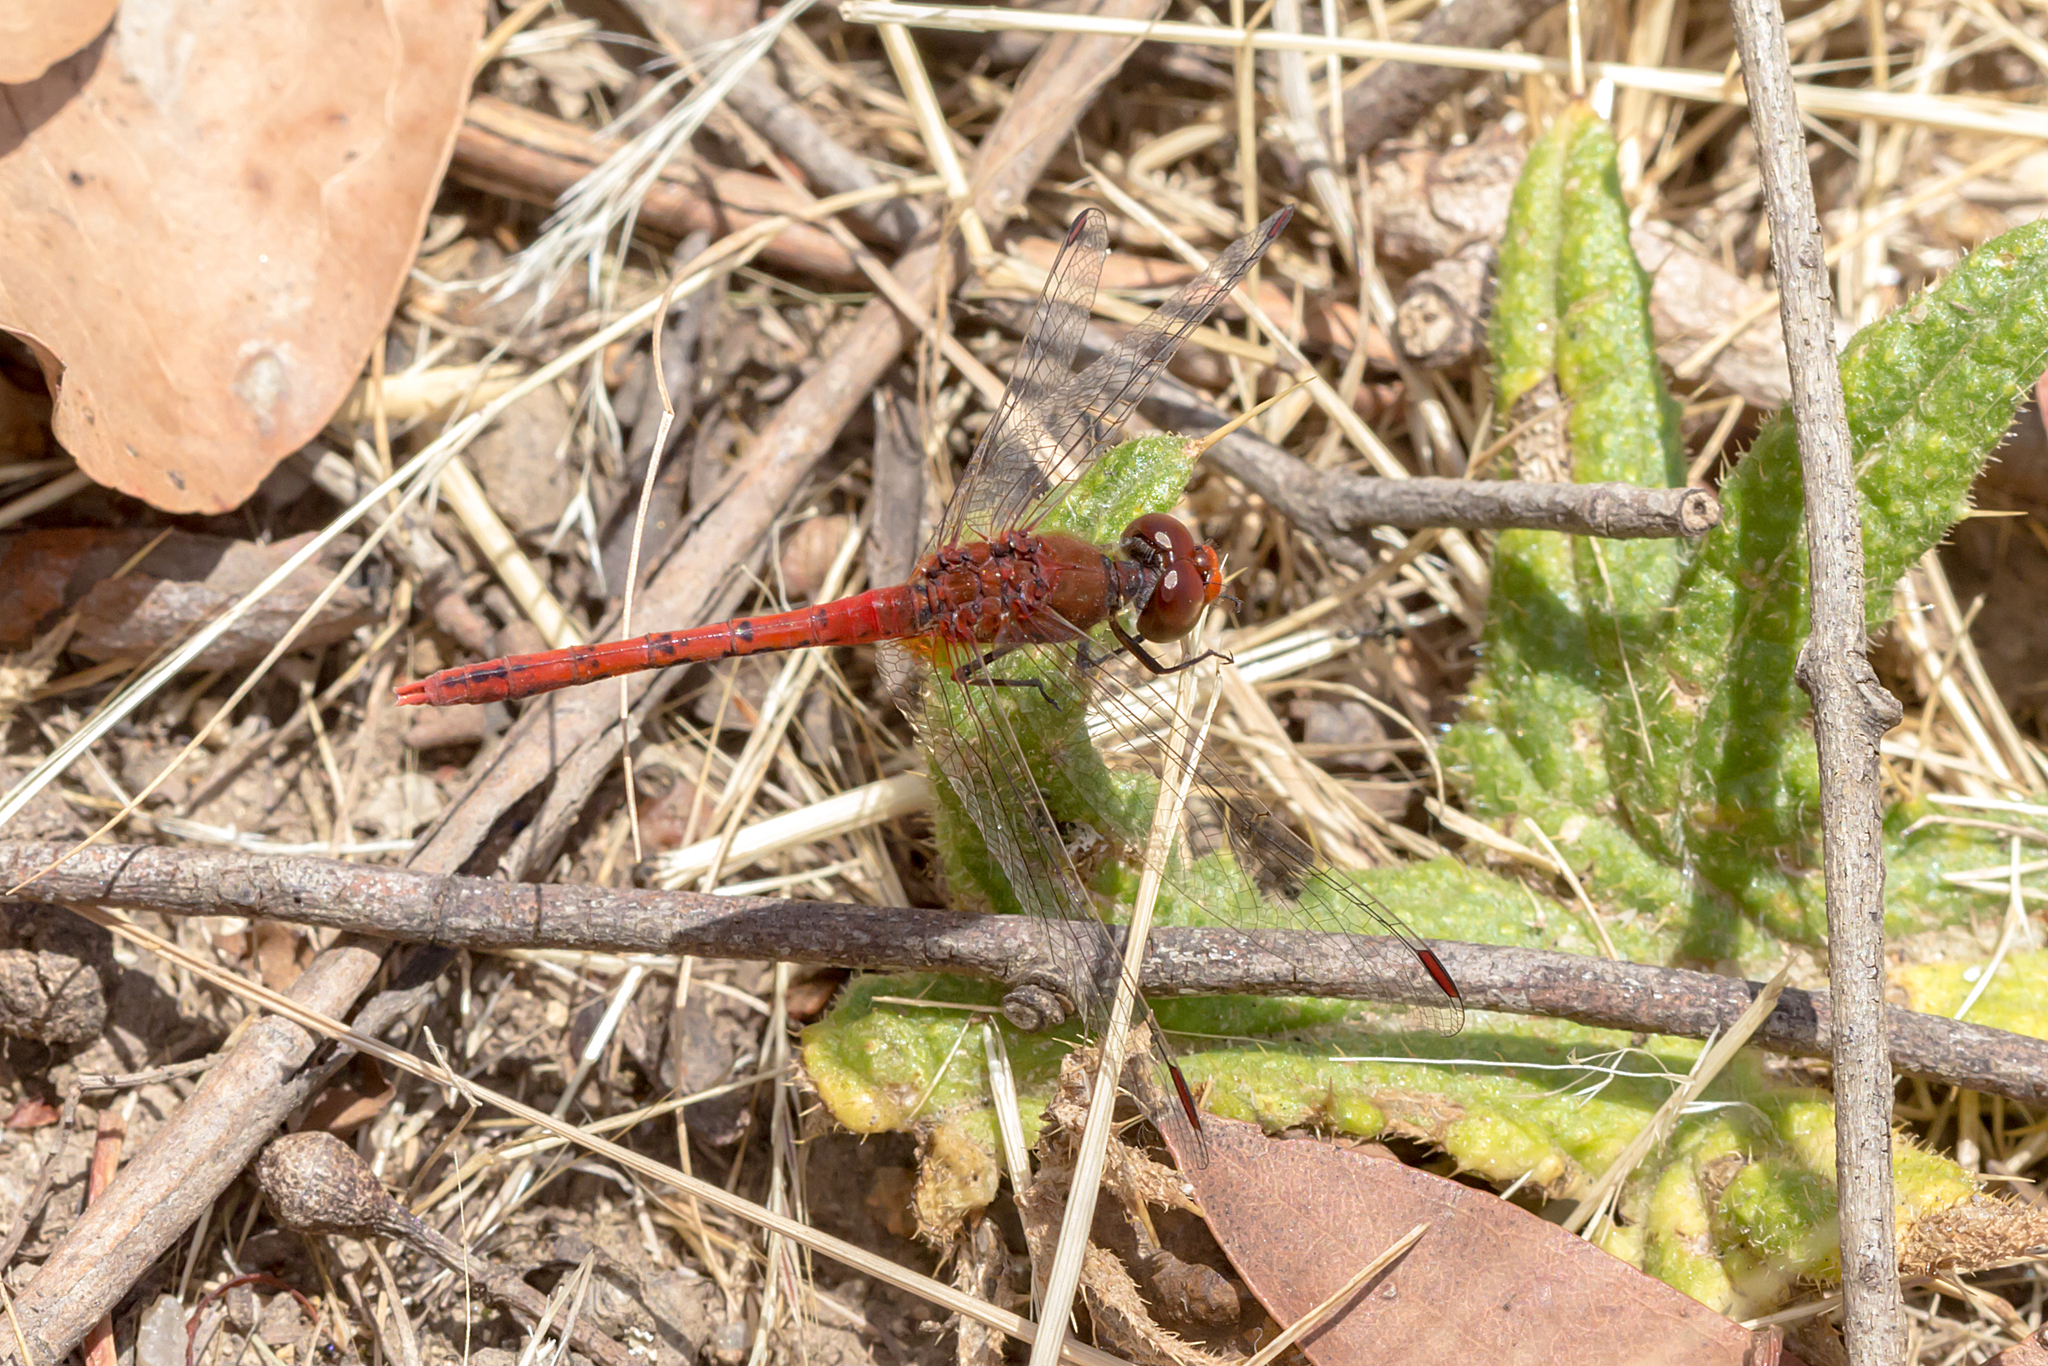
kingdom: Animalia
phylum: Arthropoda
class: Insecta
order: Odonata
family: Libellulidae
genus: Diplacodes
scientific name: Diplacodes bipunctata
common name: Red percher dragonfly
